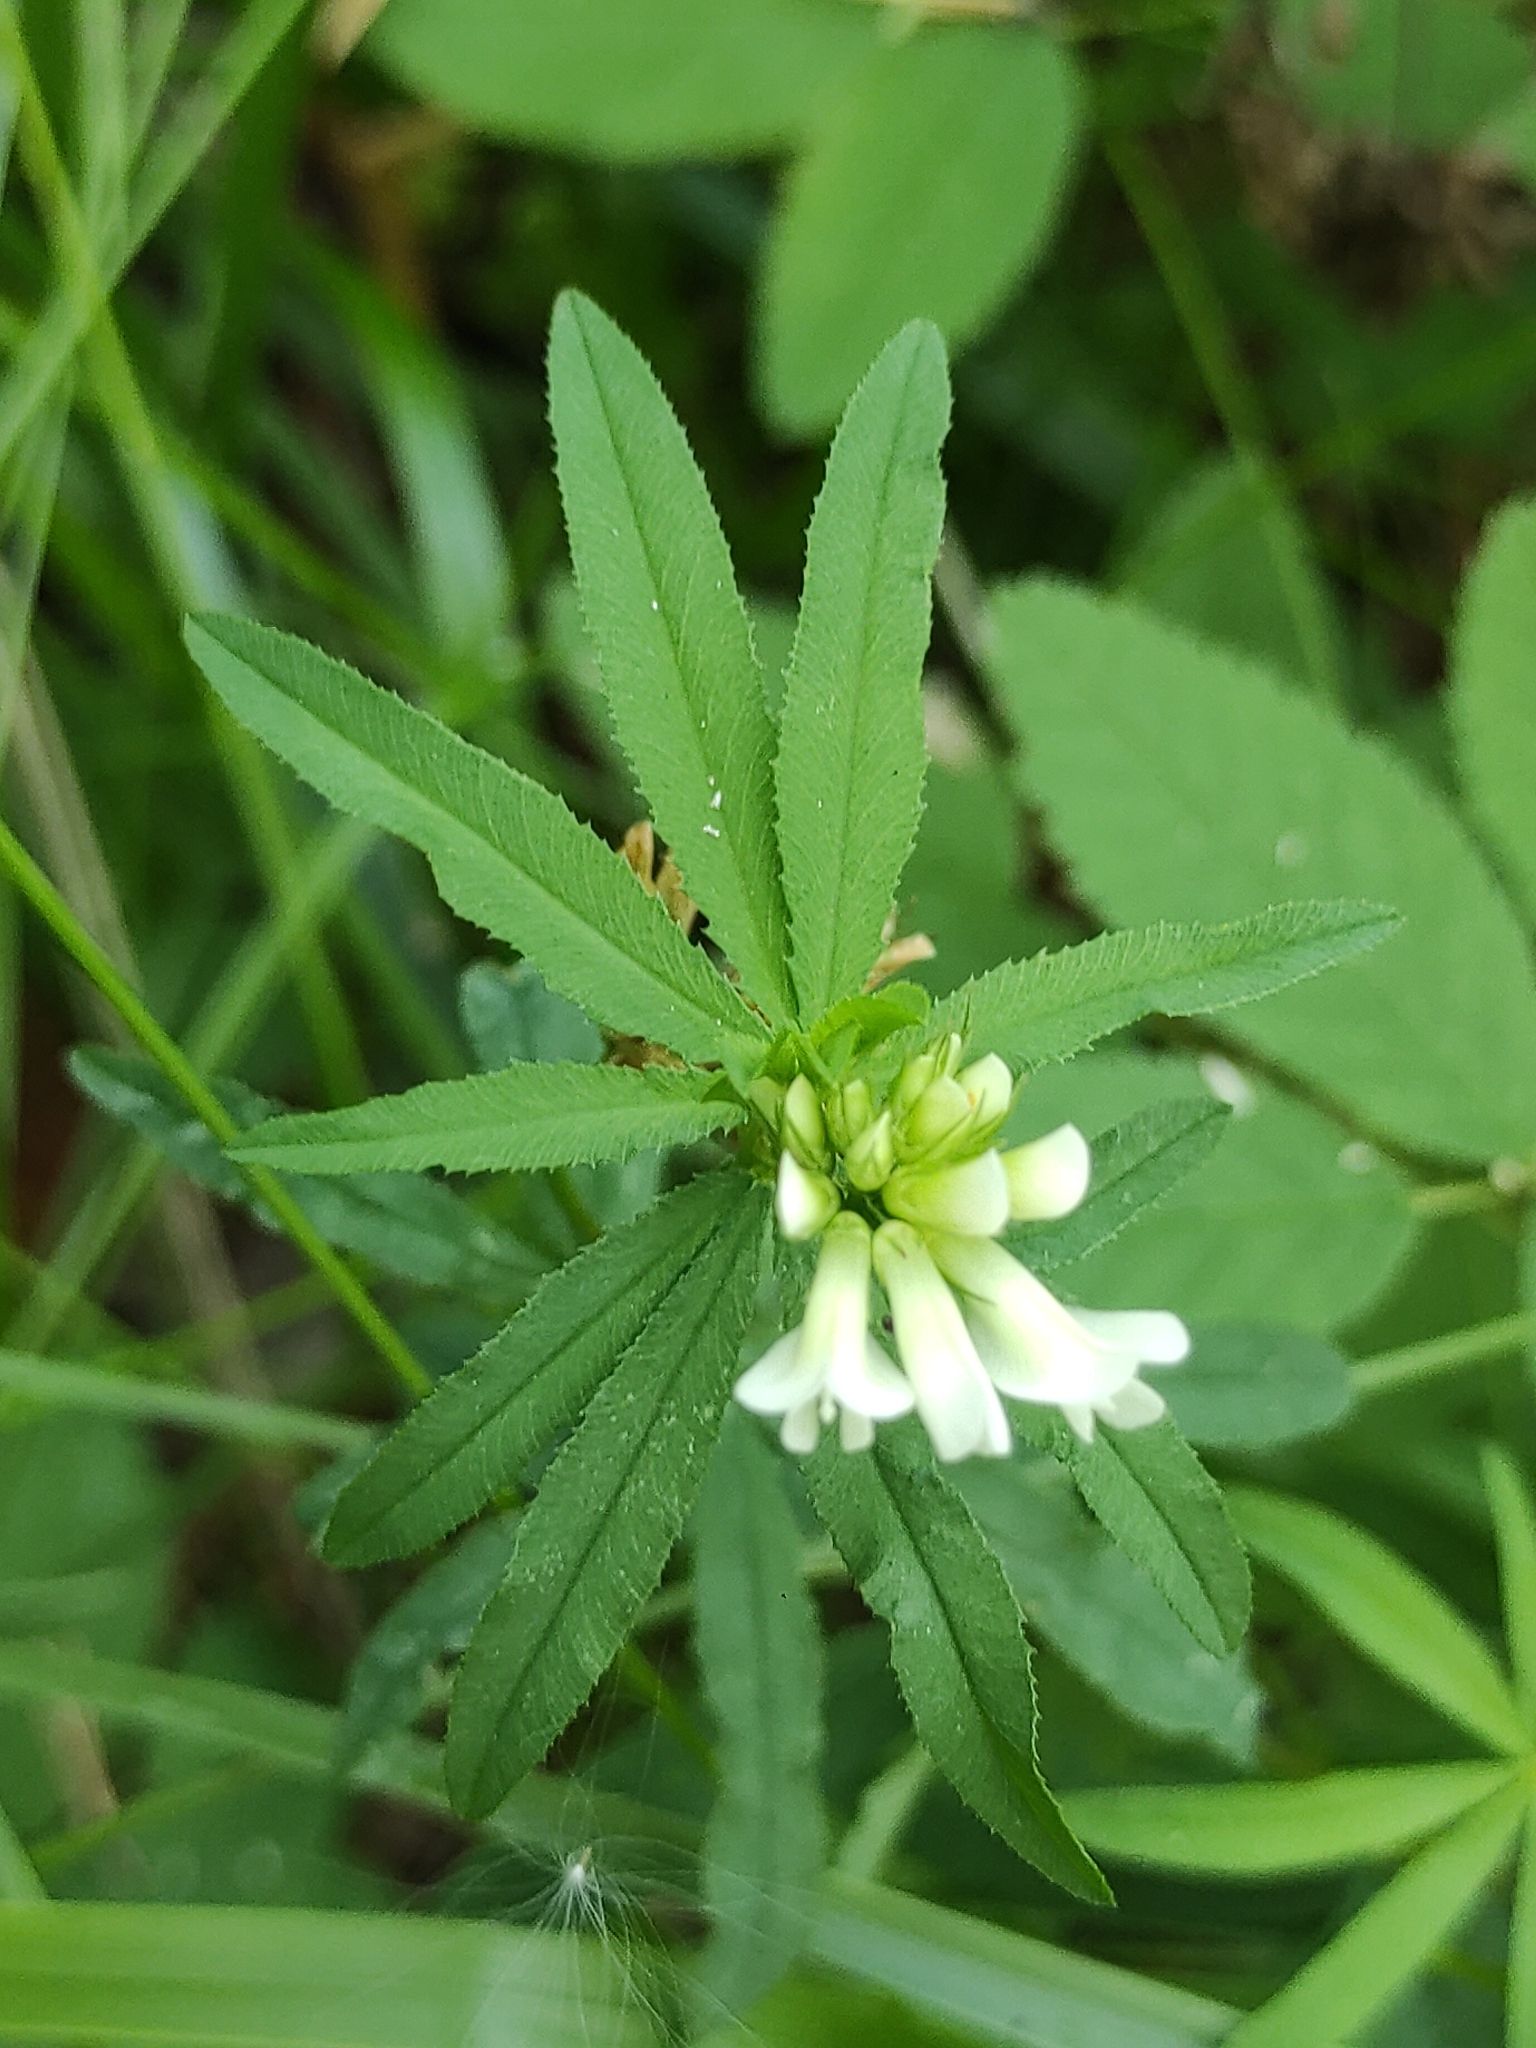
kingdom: Plantae
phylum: Tracheophyta
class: Magnoliopsida
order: Fabales
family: Fabaceae
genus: Trifolium
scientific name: Trifolium lupinaster
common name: Lupine clover
